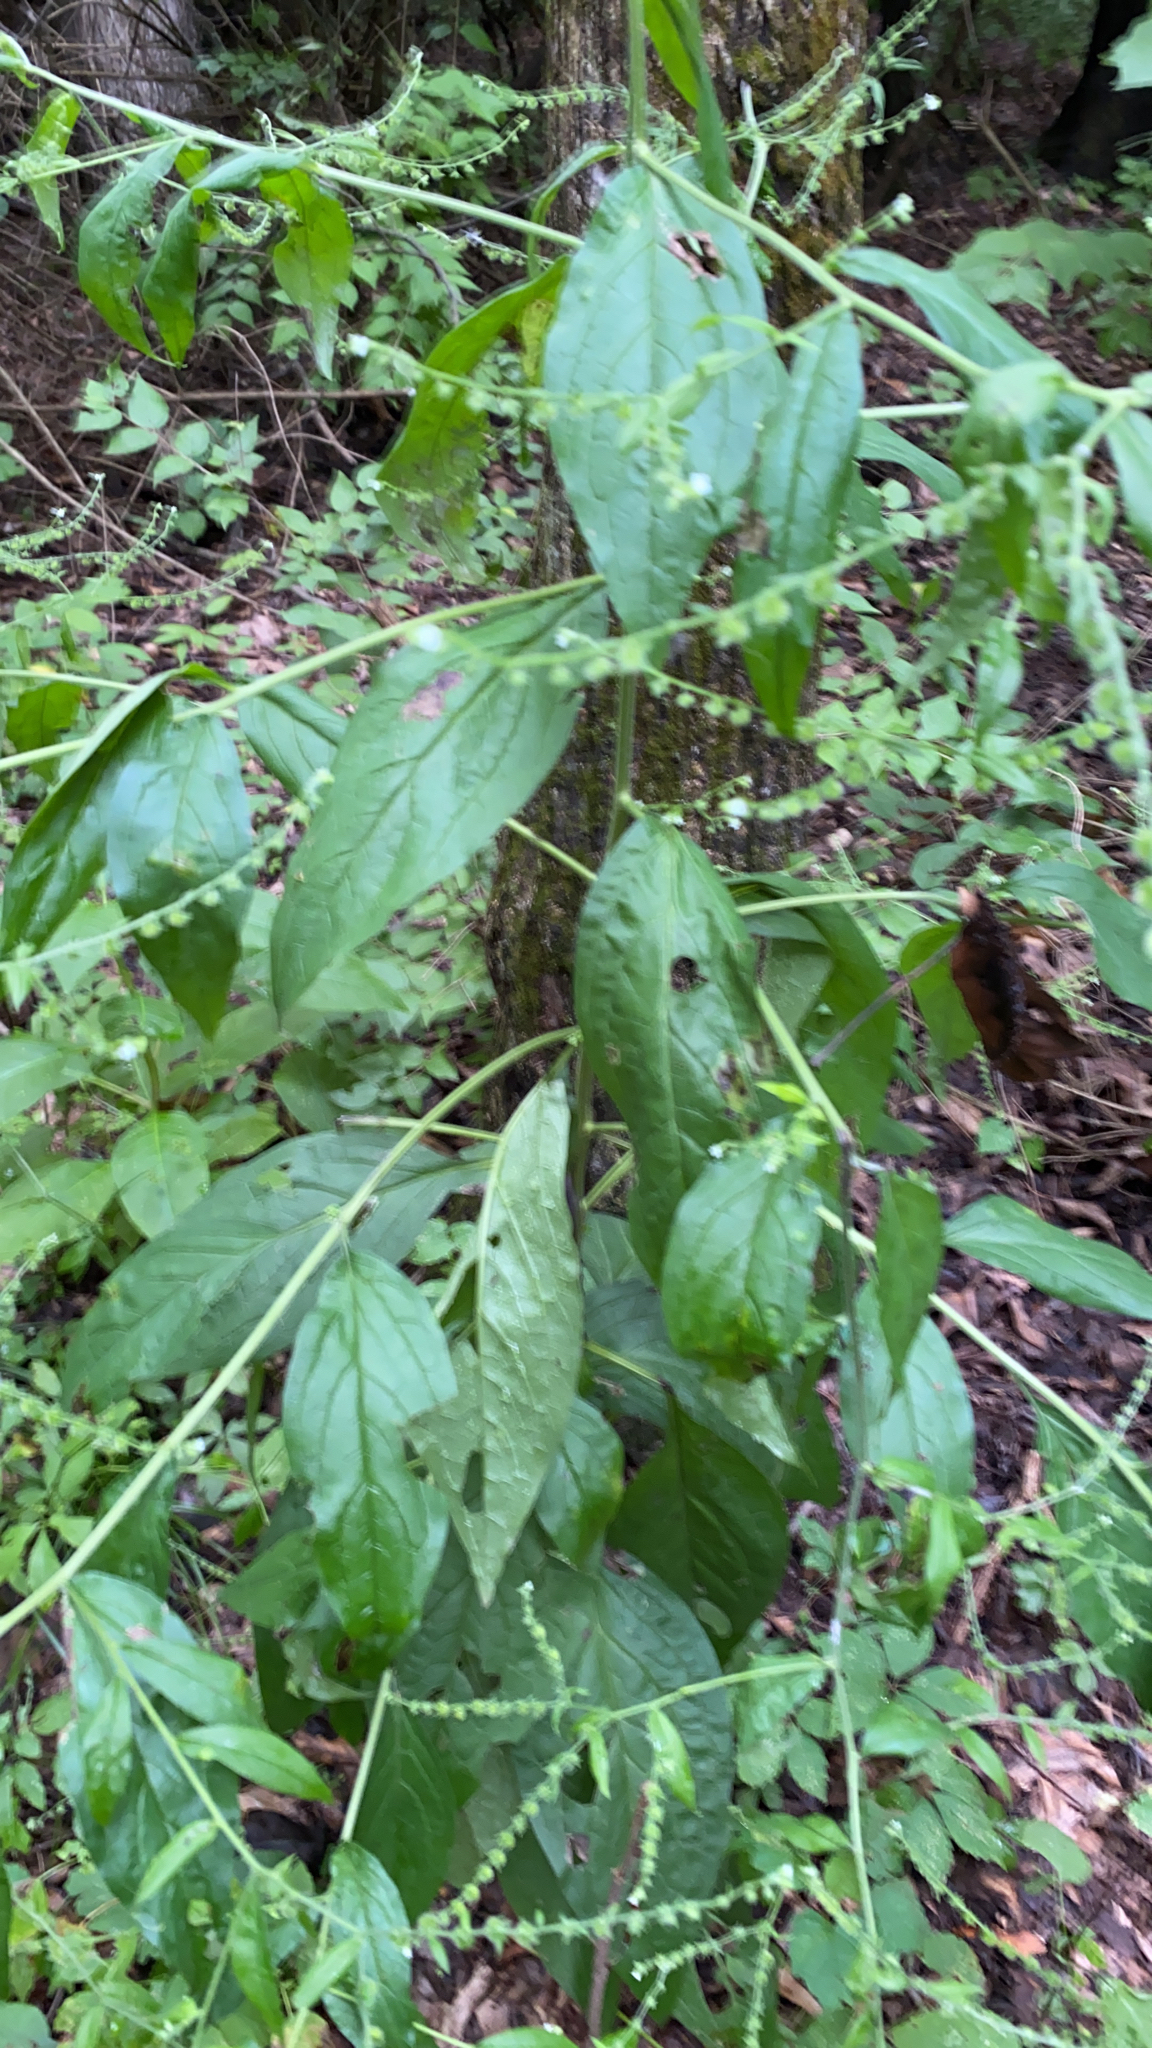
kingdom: Plantae
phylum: Tracheophyta
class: Magnoliopsida
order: Boraginales
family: Boraginaceae
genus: Hackelia
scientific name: Hackelia virginiana
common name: Beggar's-lice
